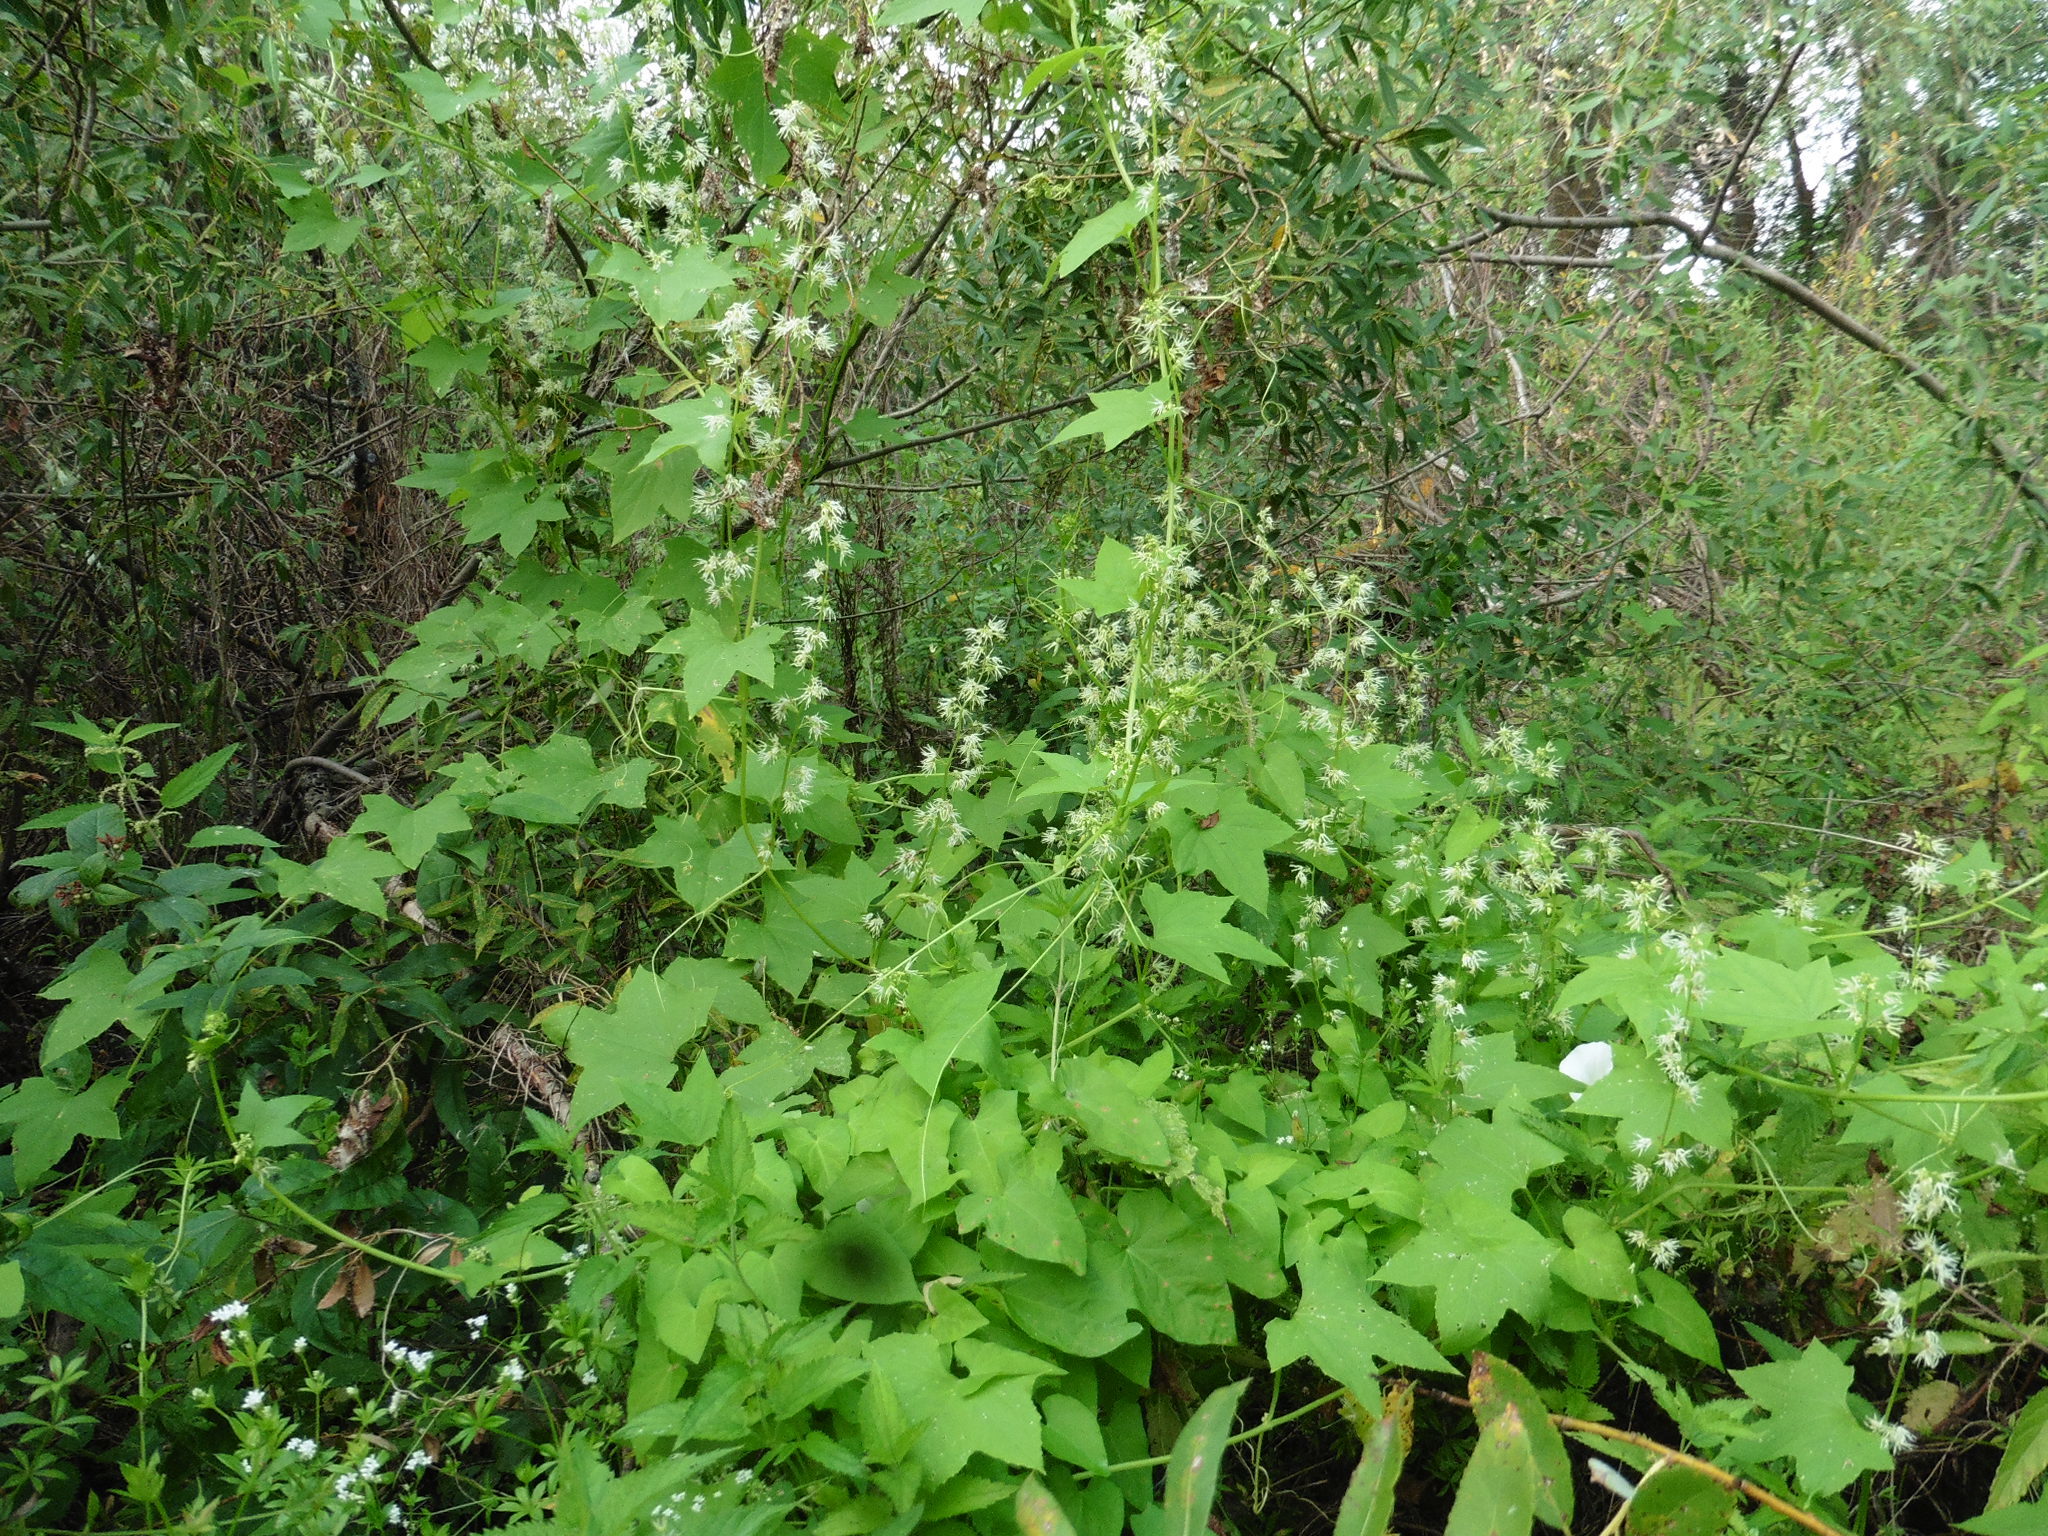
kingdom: Plantae
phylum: Tracheophyta
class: Magnoliopsida
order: Cucurbitales
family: Cucurbitaceae
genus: Echinocystis
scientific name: Echinocystis lobata
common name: Wild cucumber
